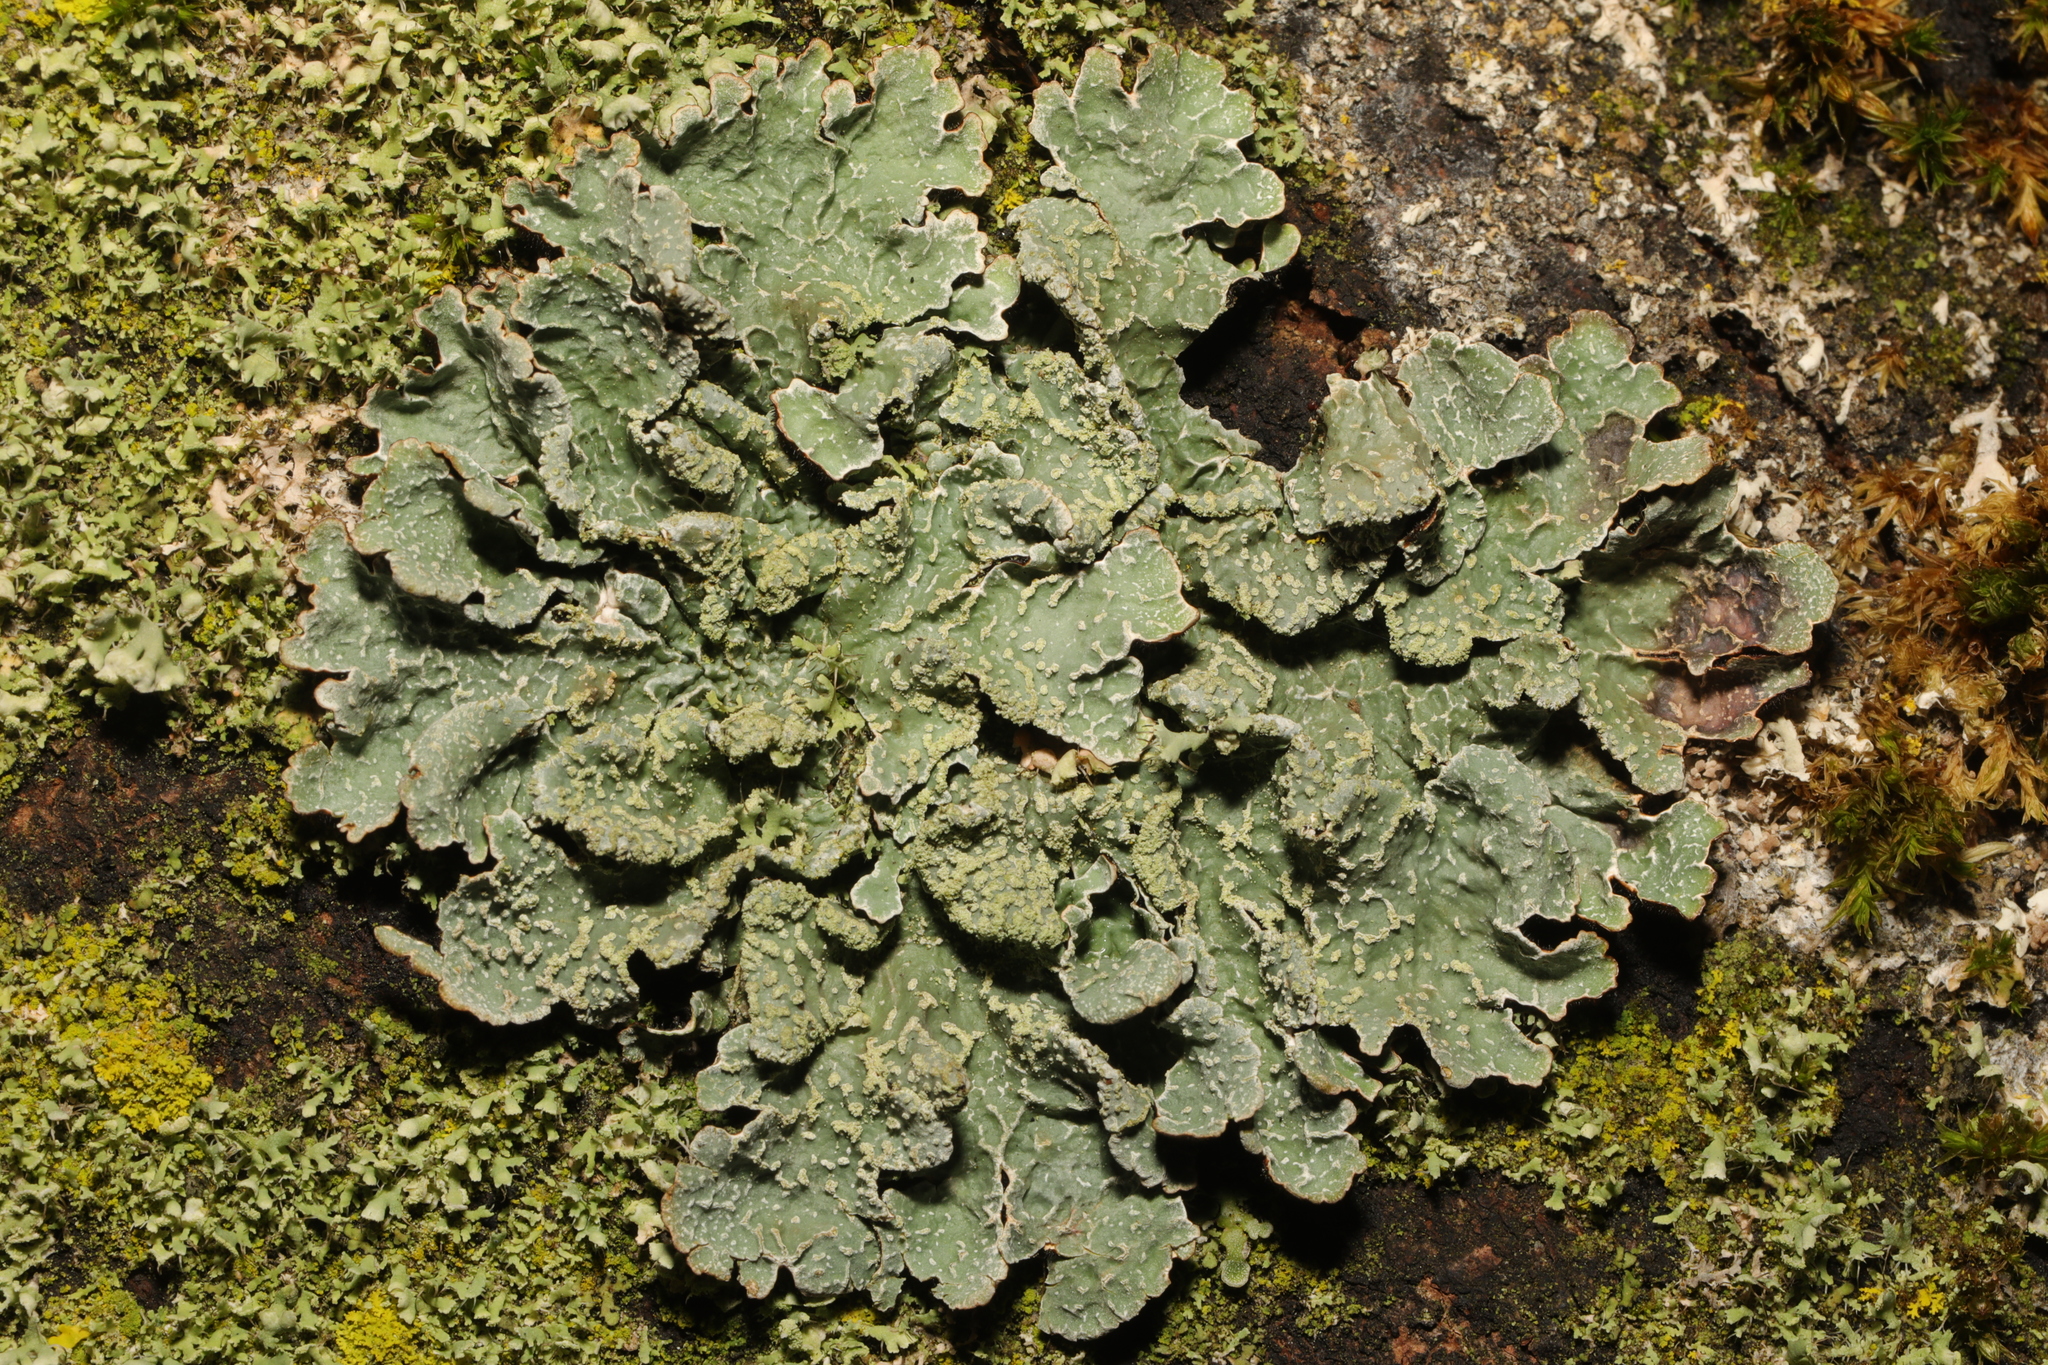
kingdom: Fungi
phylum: Ascomycota
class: Lecanoromycetes
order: Lecanorales
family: Parmeliaceae
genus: Parmelia
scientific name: Parmelia sulcata
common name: Netted shield lichen
